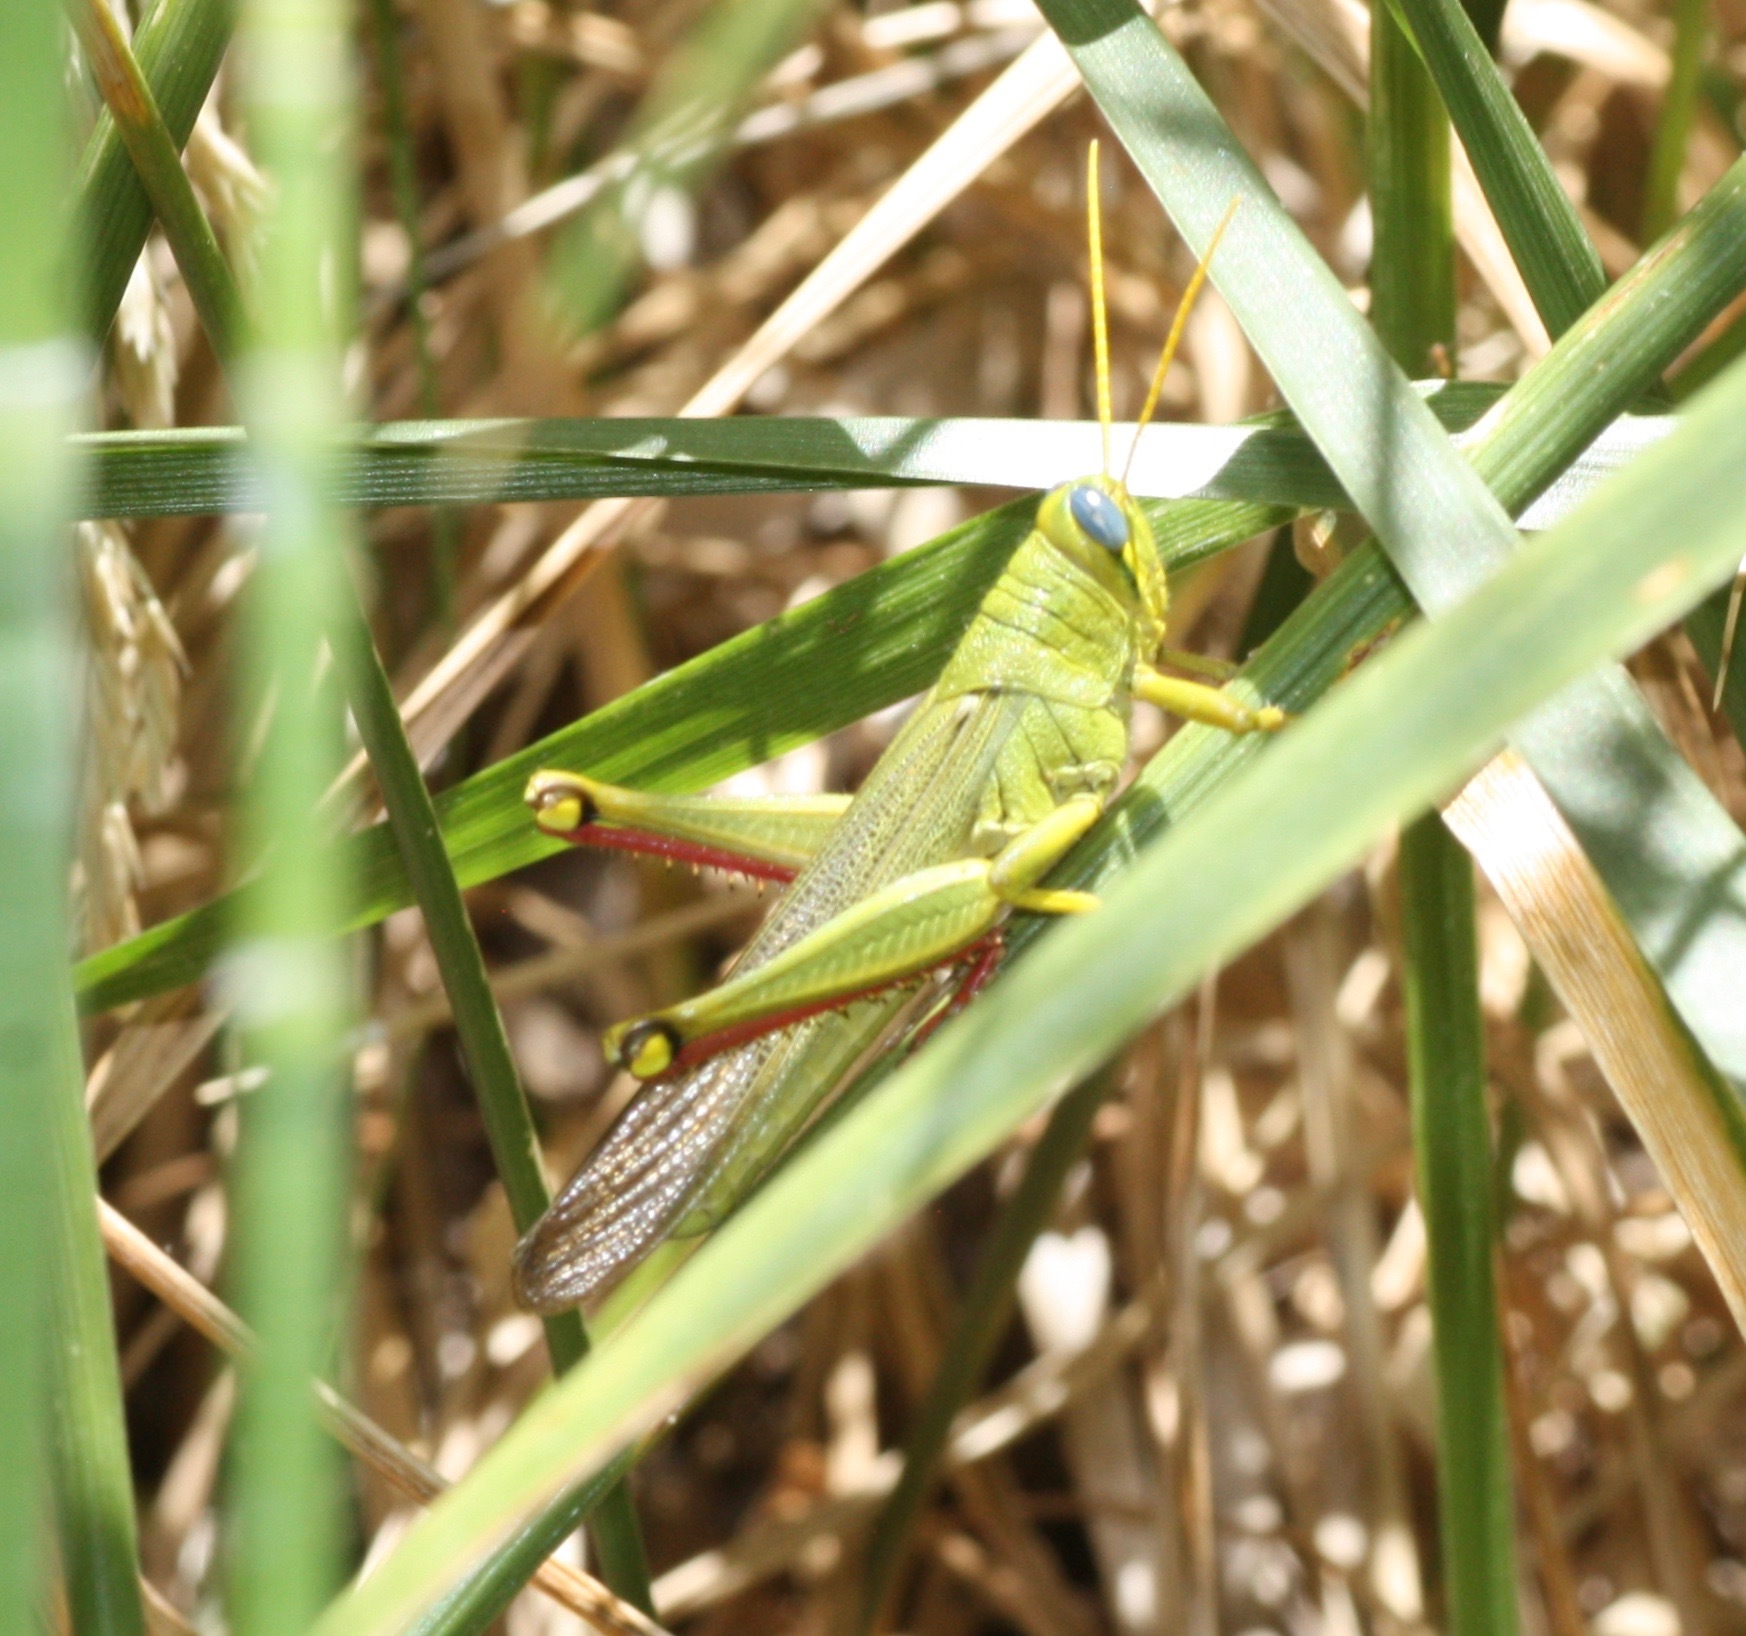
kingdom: Animalia
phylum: Arthropoda
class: Insecta
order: Orthoptera
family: Acrididae
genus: Schistocerca
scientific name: Schistocerca shoshone
